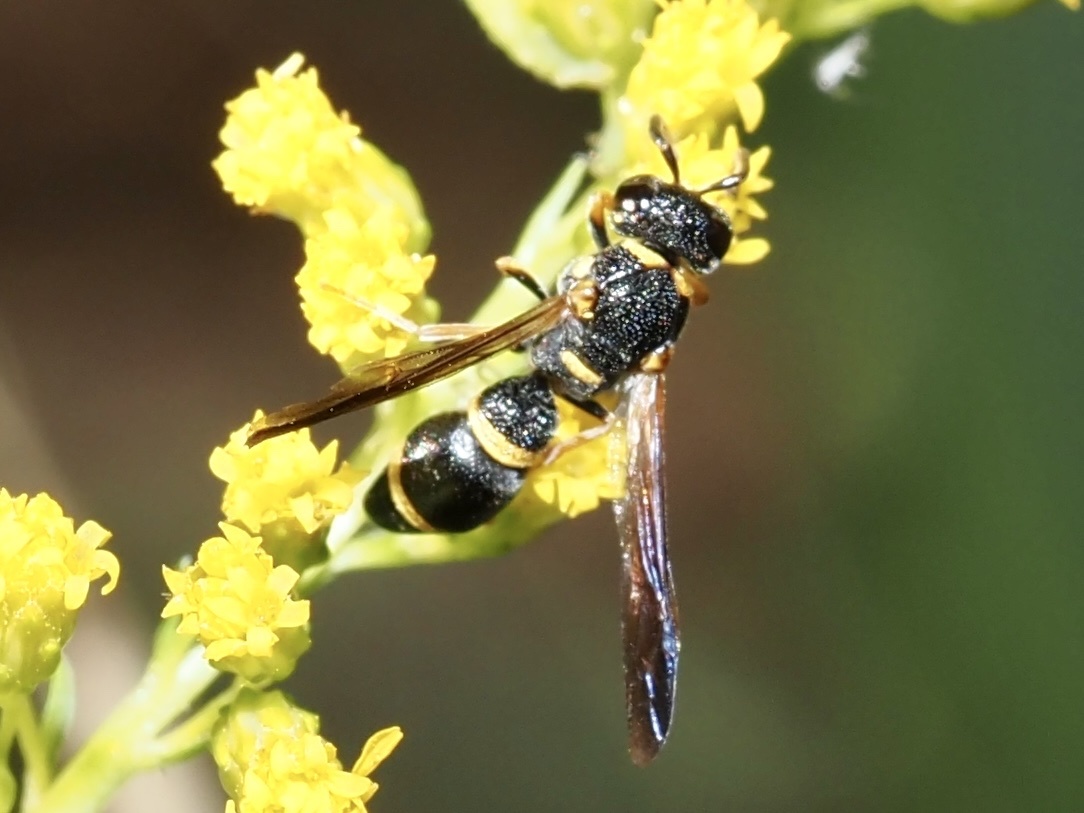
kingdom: Animalia
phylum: Arthropoda
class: Insecta
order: Hymenoptera
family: Eumenidae
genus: Parancistrocerus
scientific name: Parancistrocerus perennis
